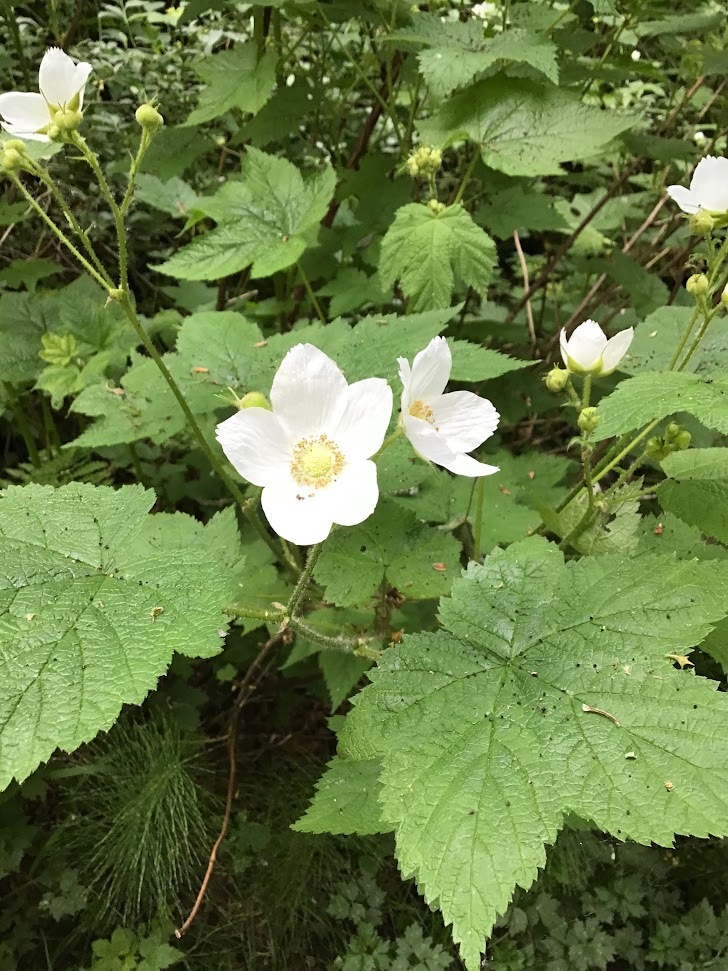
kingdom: Plantae
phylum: Tracheophyta
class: Magnoliopsida
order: Rosales
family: Rosaceae
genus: Rubus
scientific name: Rubus parviflorus
